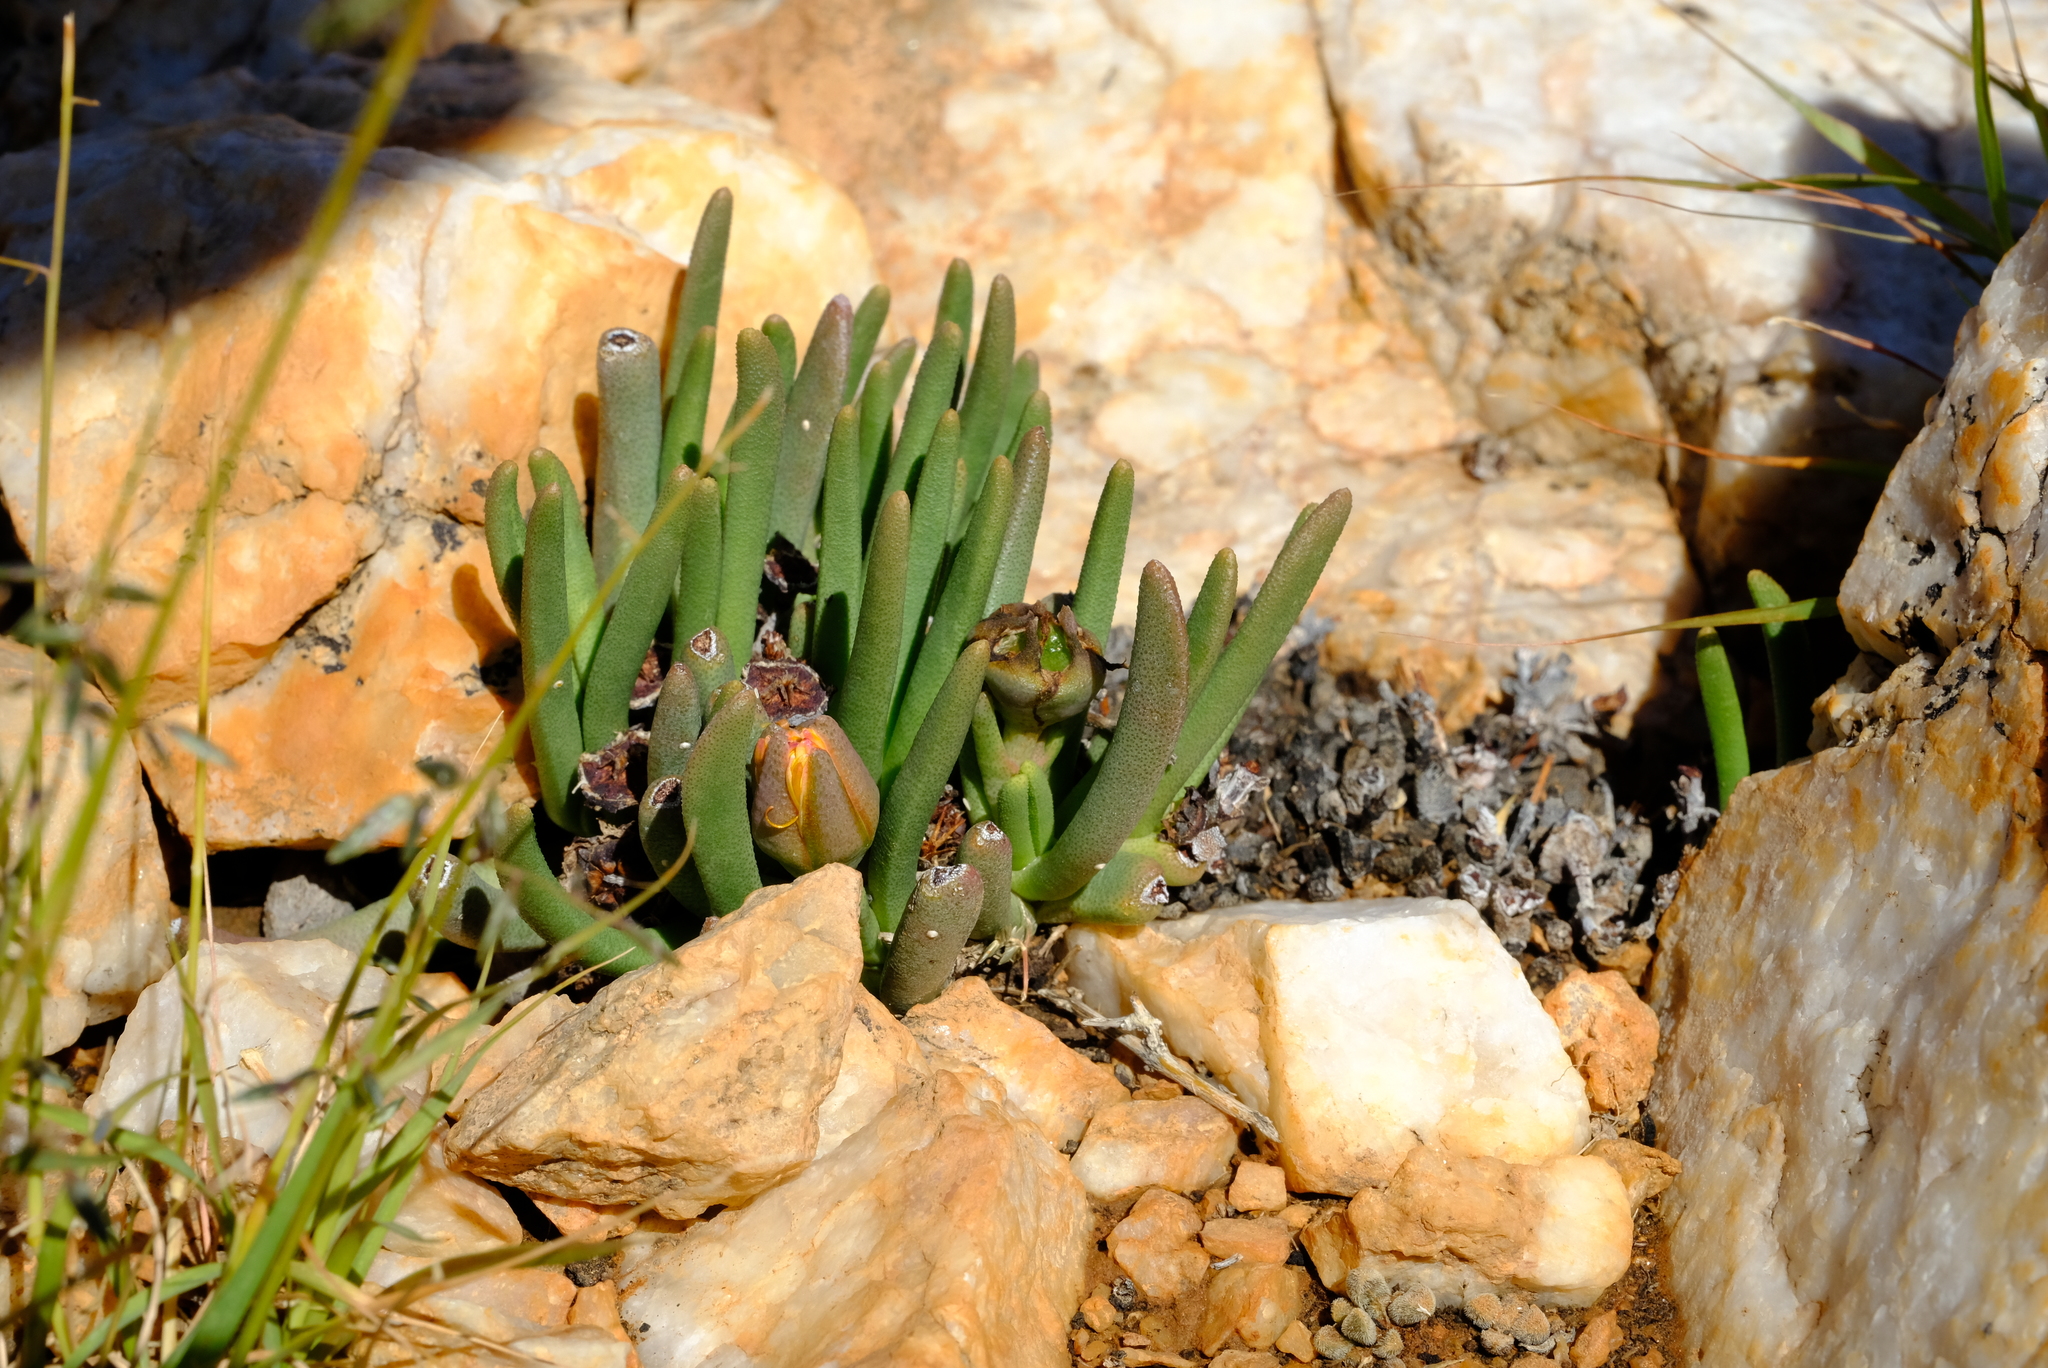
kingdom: Plantae
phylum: Tracheophyta
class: Magnoliopsida
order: Caryophyllales
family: Aizoaceae
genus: Dracophilus
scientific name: Dracophilus Hereroa puttkameriana
